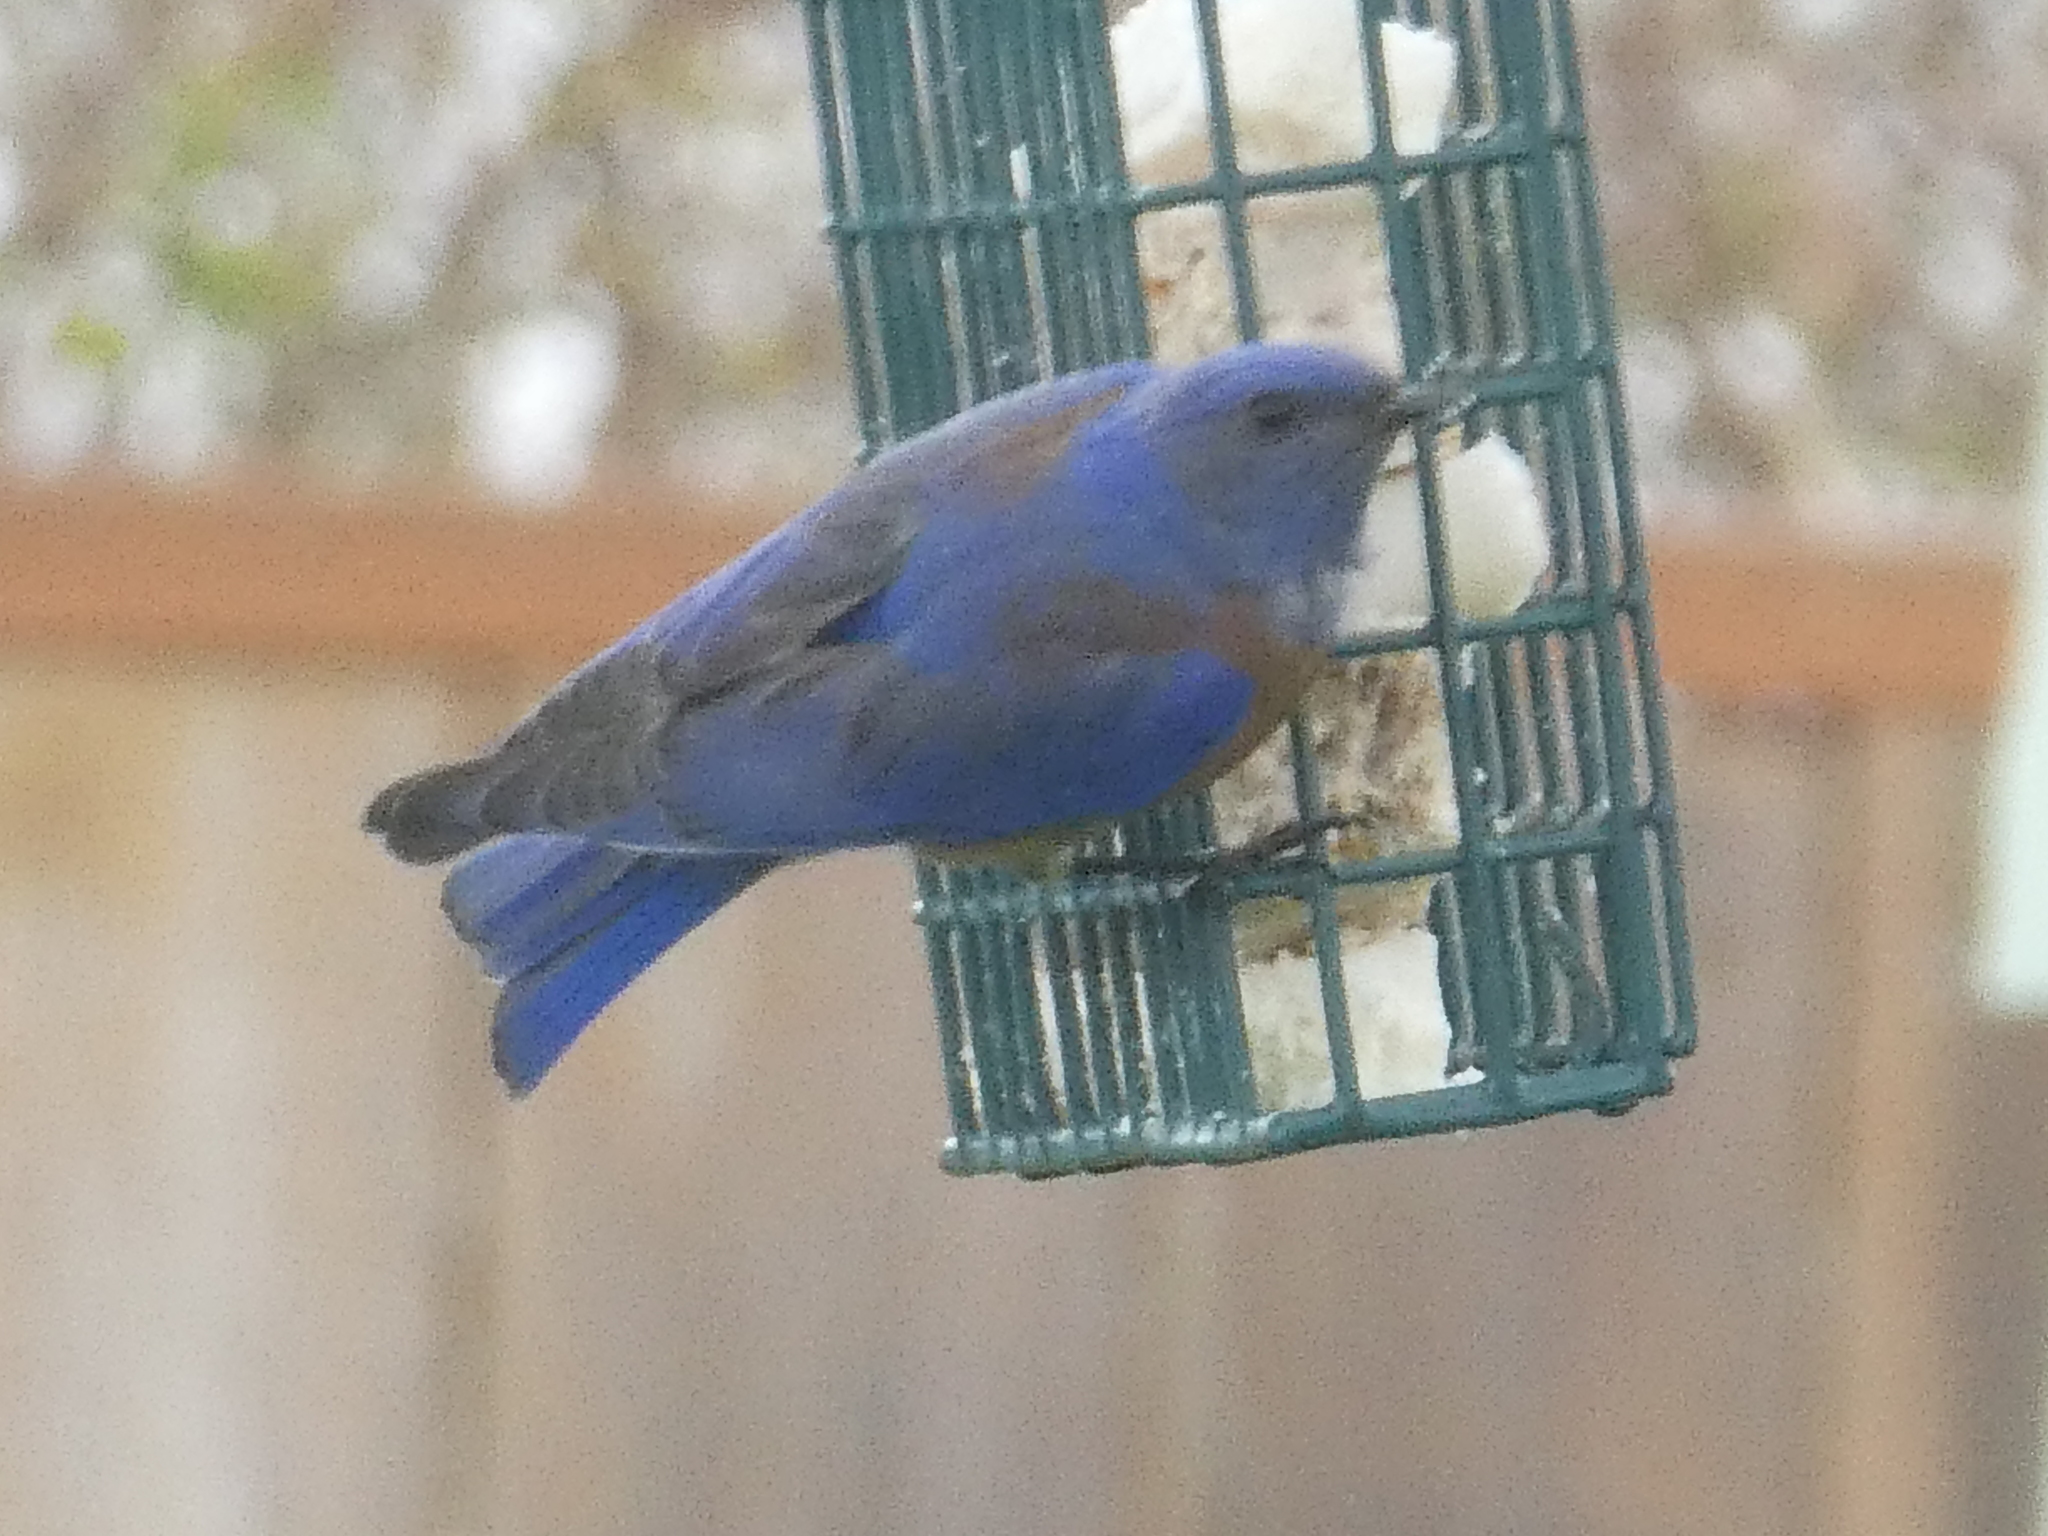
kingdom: Animalia
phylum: Chordata
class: Aves
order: Passeriformes
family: Turdidae
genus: Sialia
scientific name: Sialia mexicana
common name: Western bluebird
